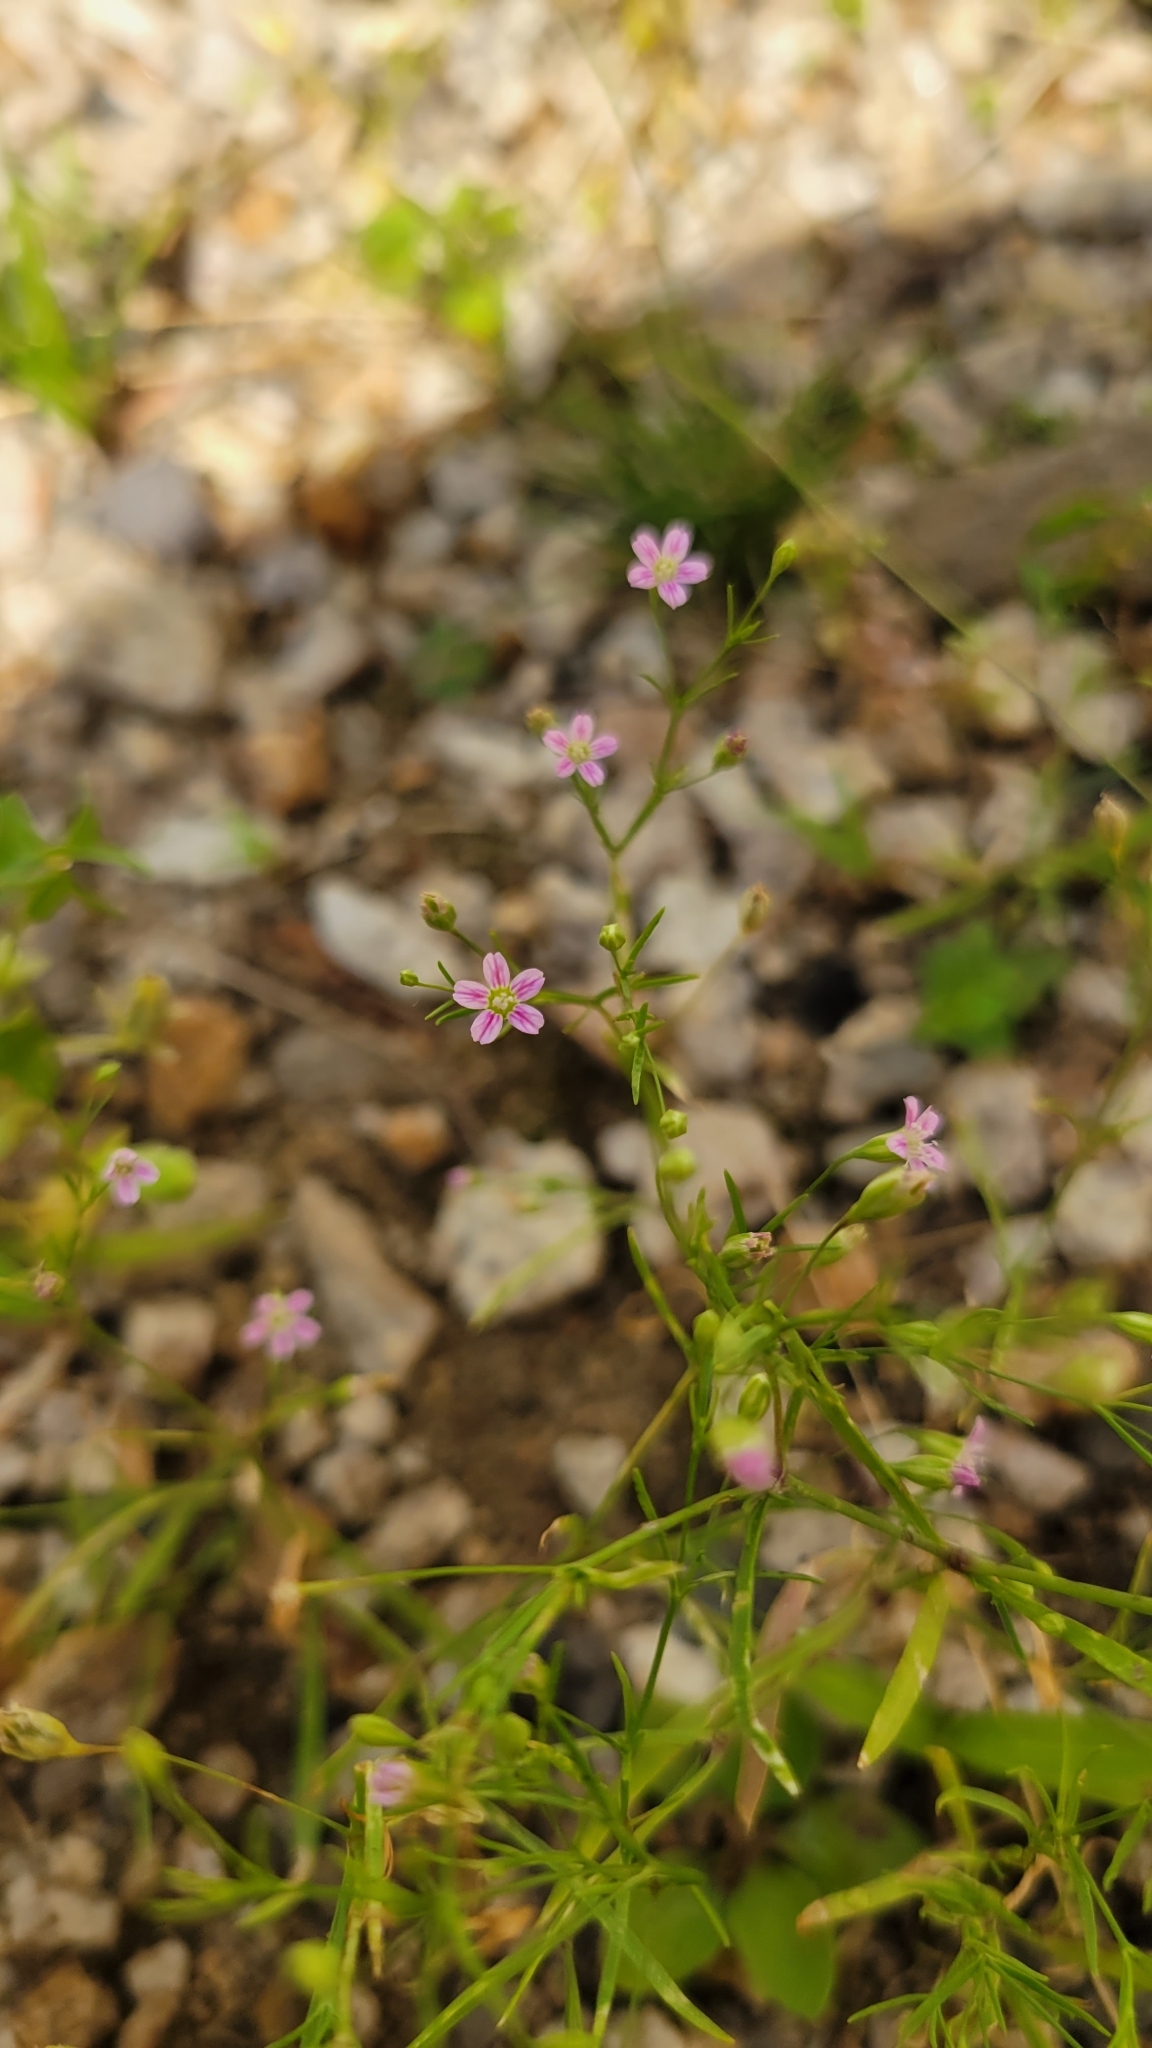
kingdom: Plantae
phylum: Tracheophyta
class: Magnoliopsida
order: Gentianales
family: Gentianaceae
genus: Centaurium
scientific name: Centaurium pulchellum
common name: Lesser centaury
